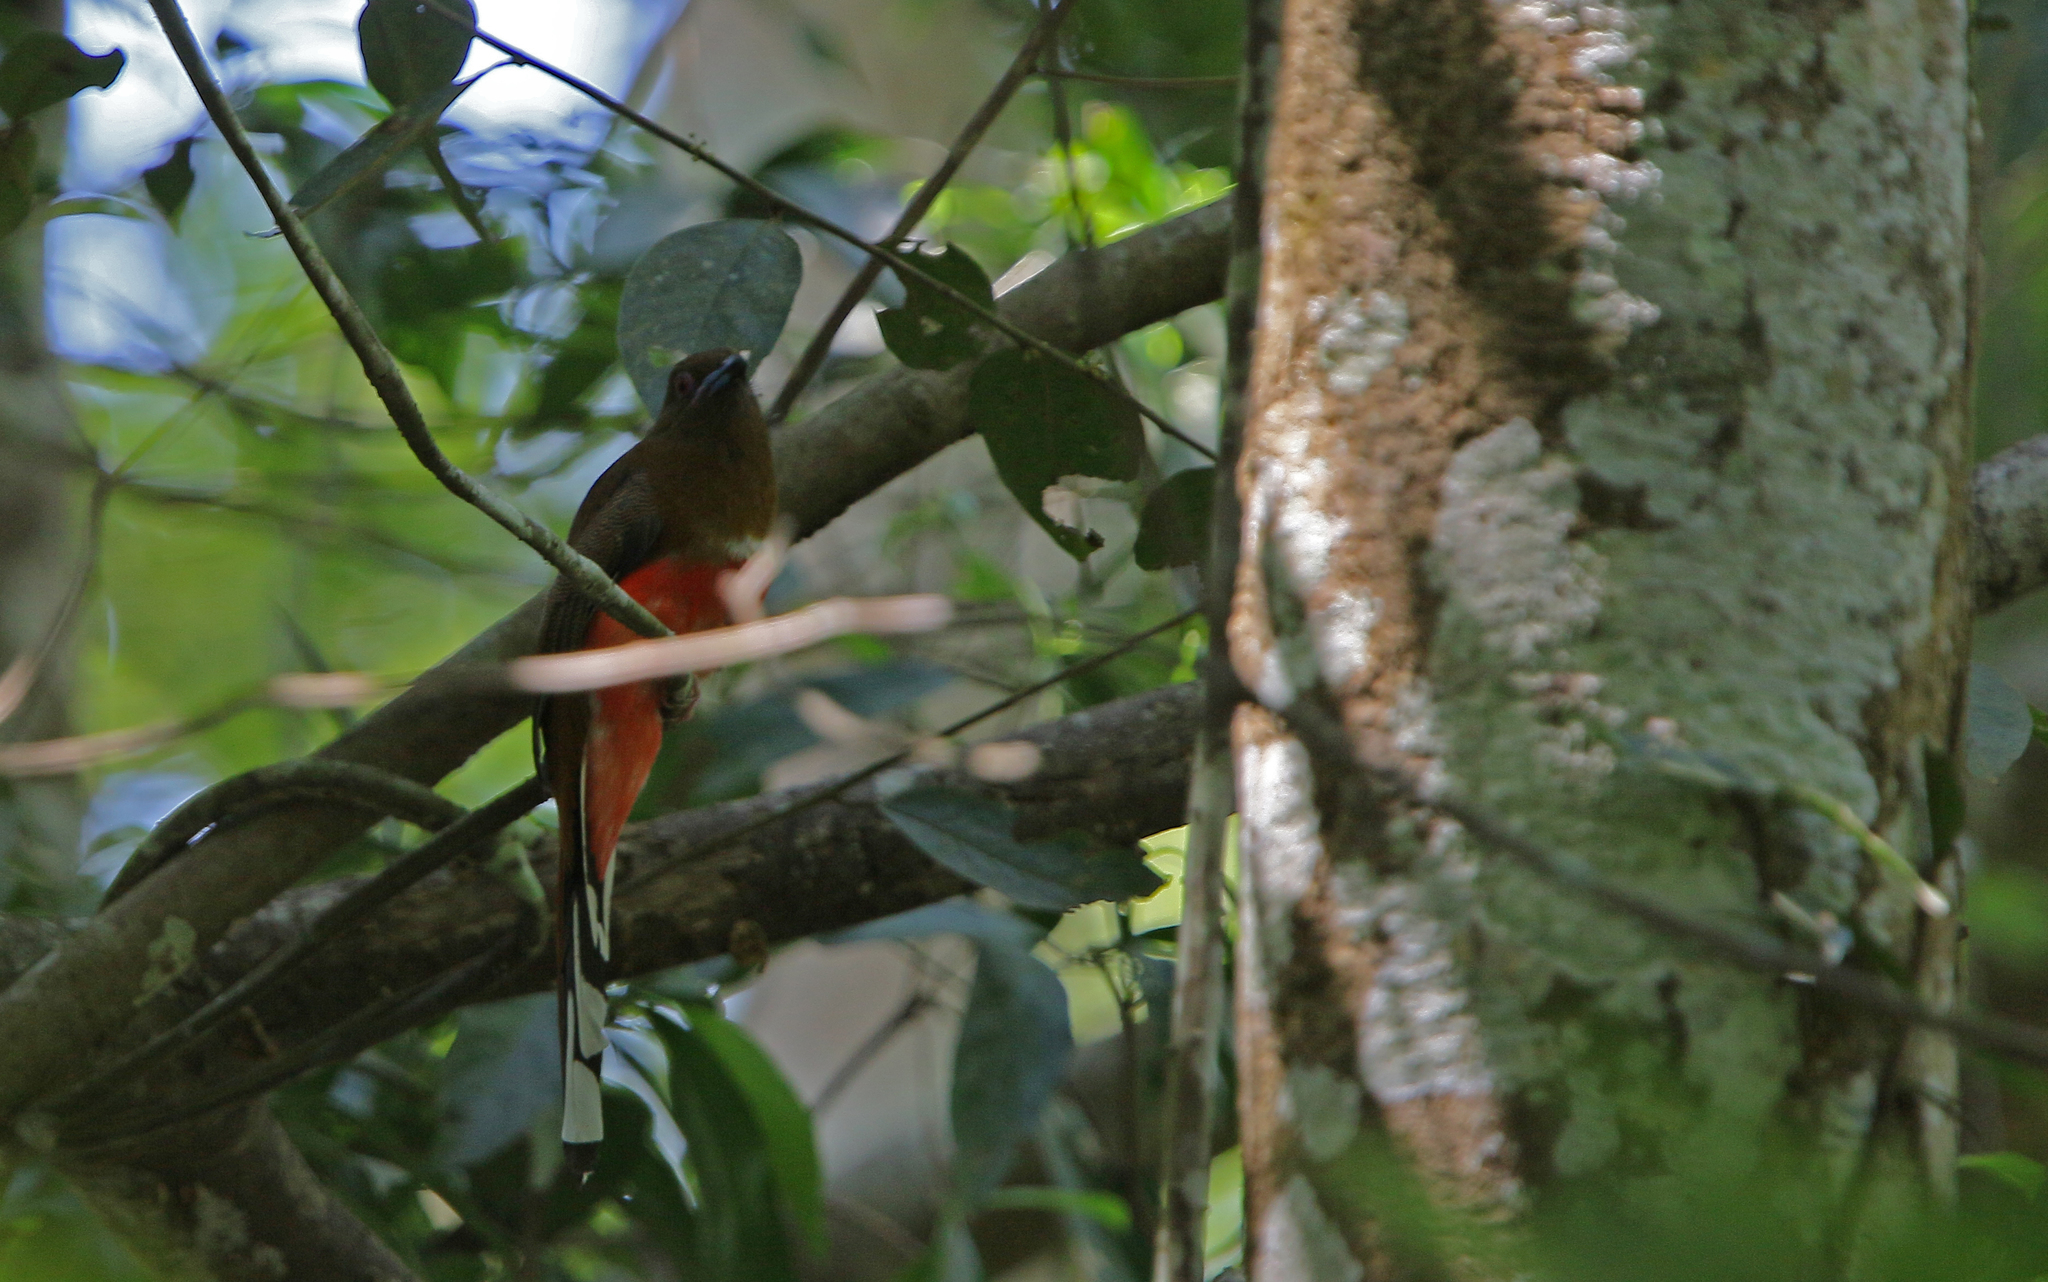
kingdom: Animalia
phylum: Chordata
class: Aves
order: Trogoniformes
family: Trogonidae
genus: Harpactes
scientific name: Harpactes erythrocephalus
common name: Red-headed trogon
